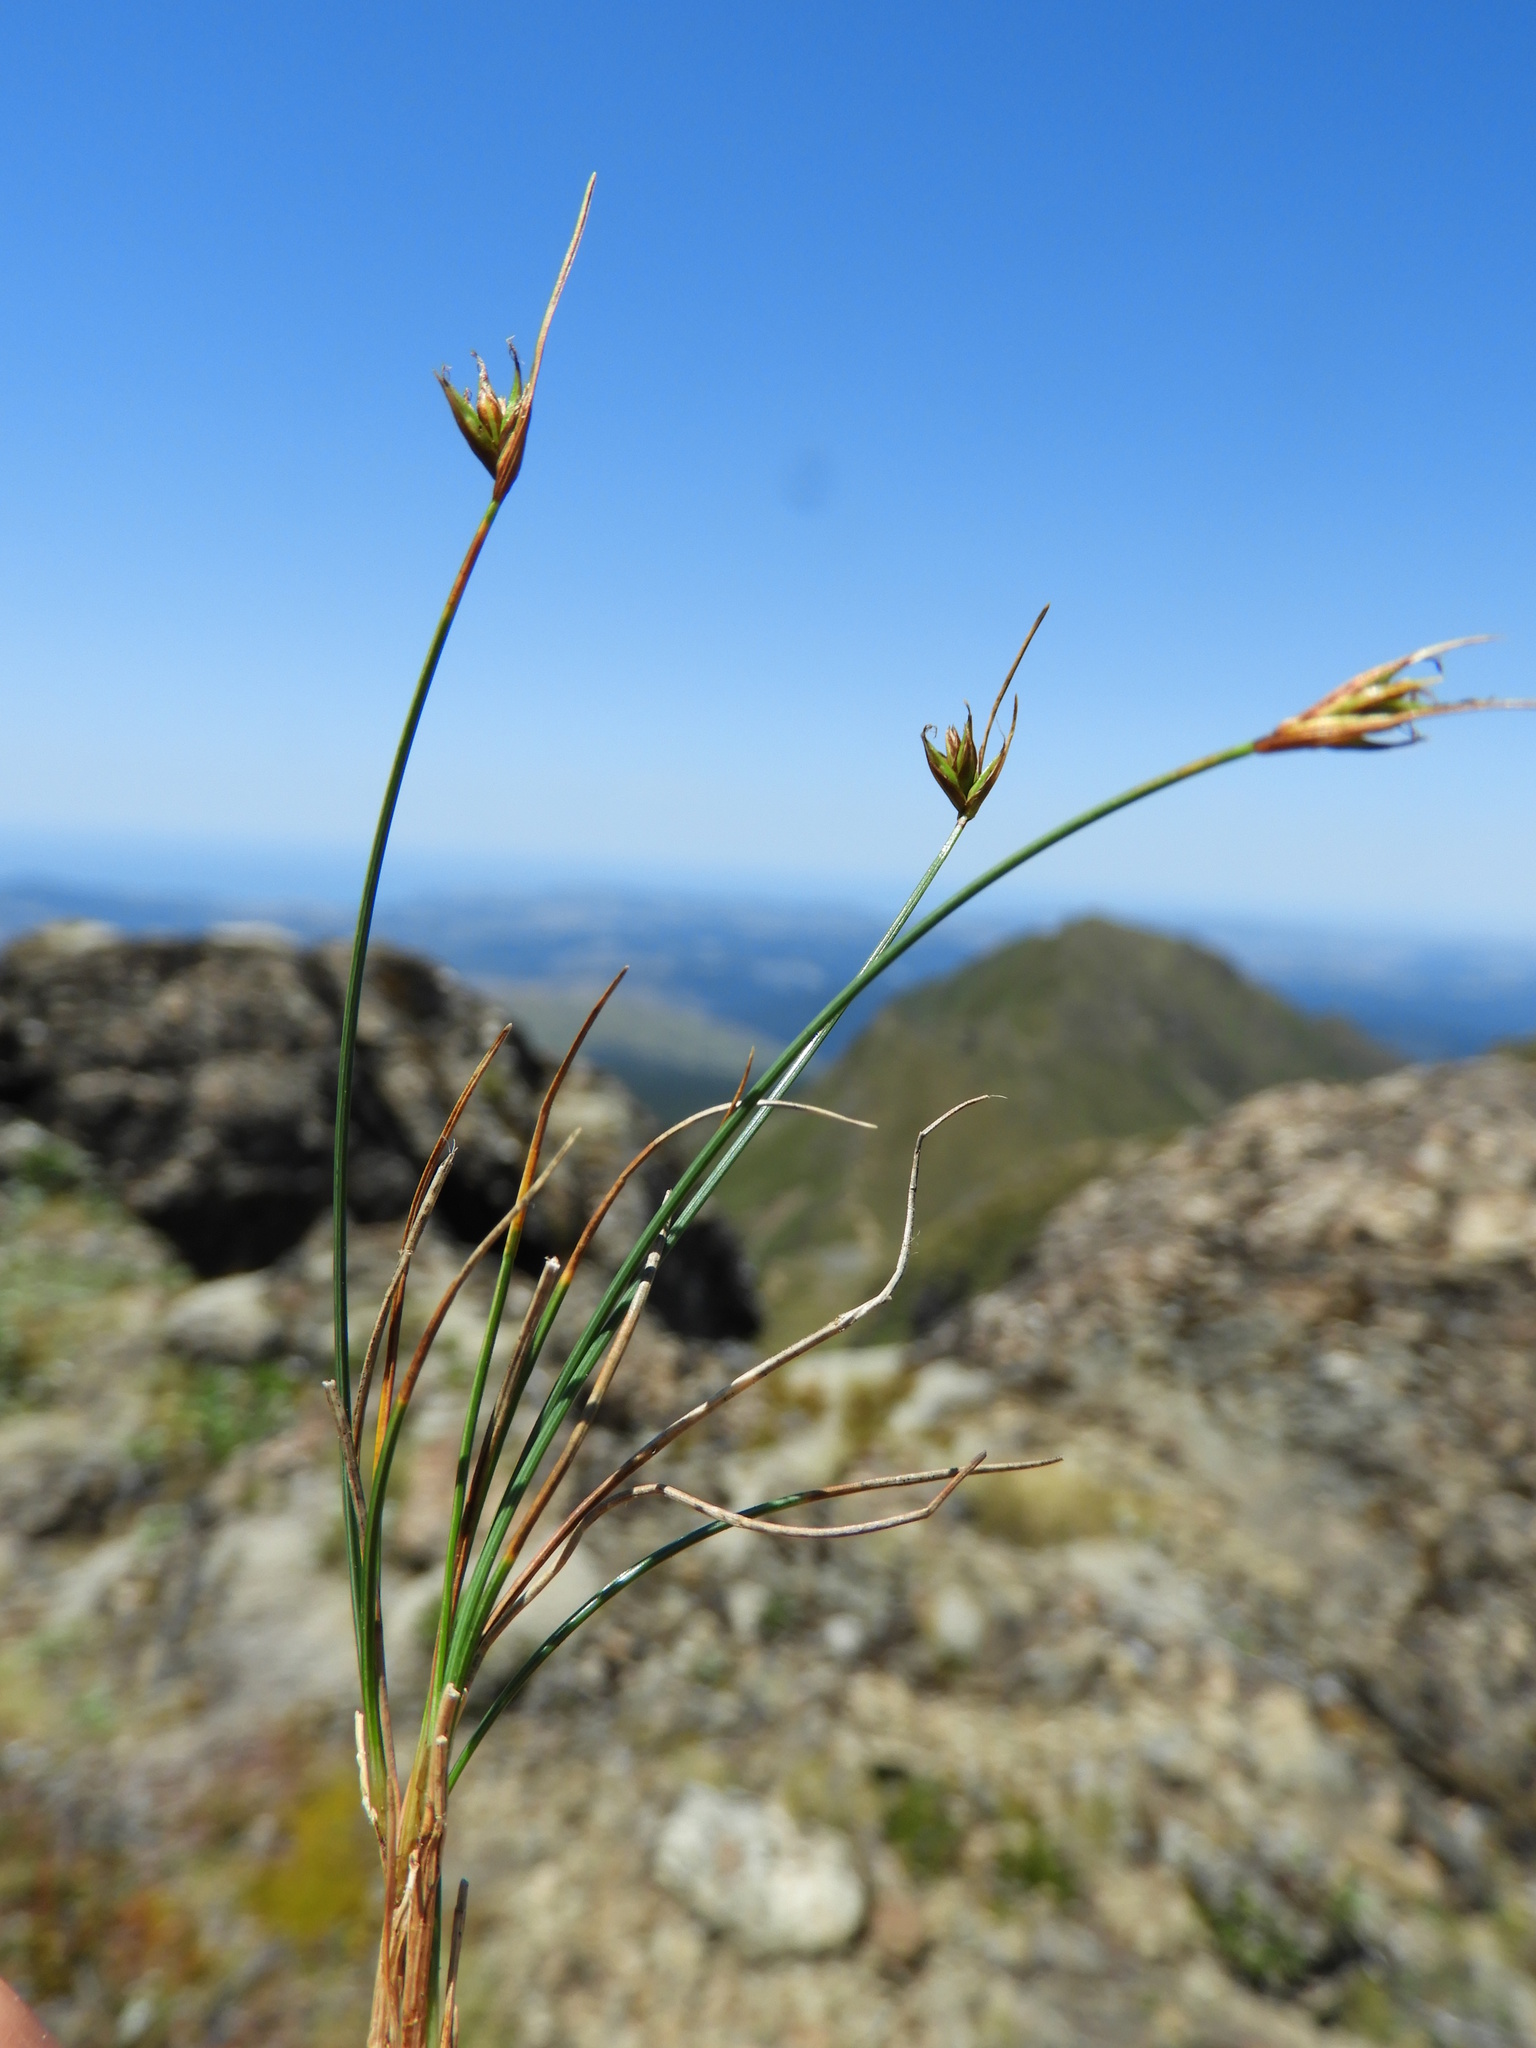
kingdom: Plantae
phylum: Tracheophyta
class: Liliopsida
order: Poales
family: Cyperaceae
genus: Carex
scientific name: Carex acicularis
